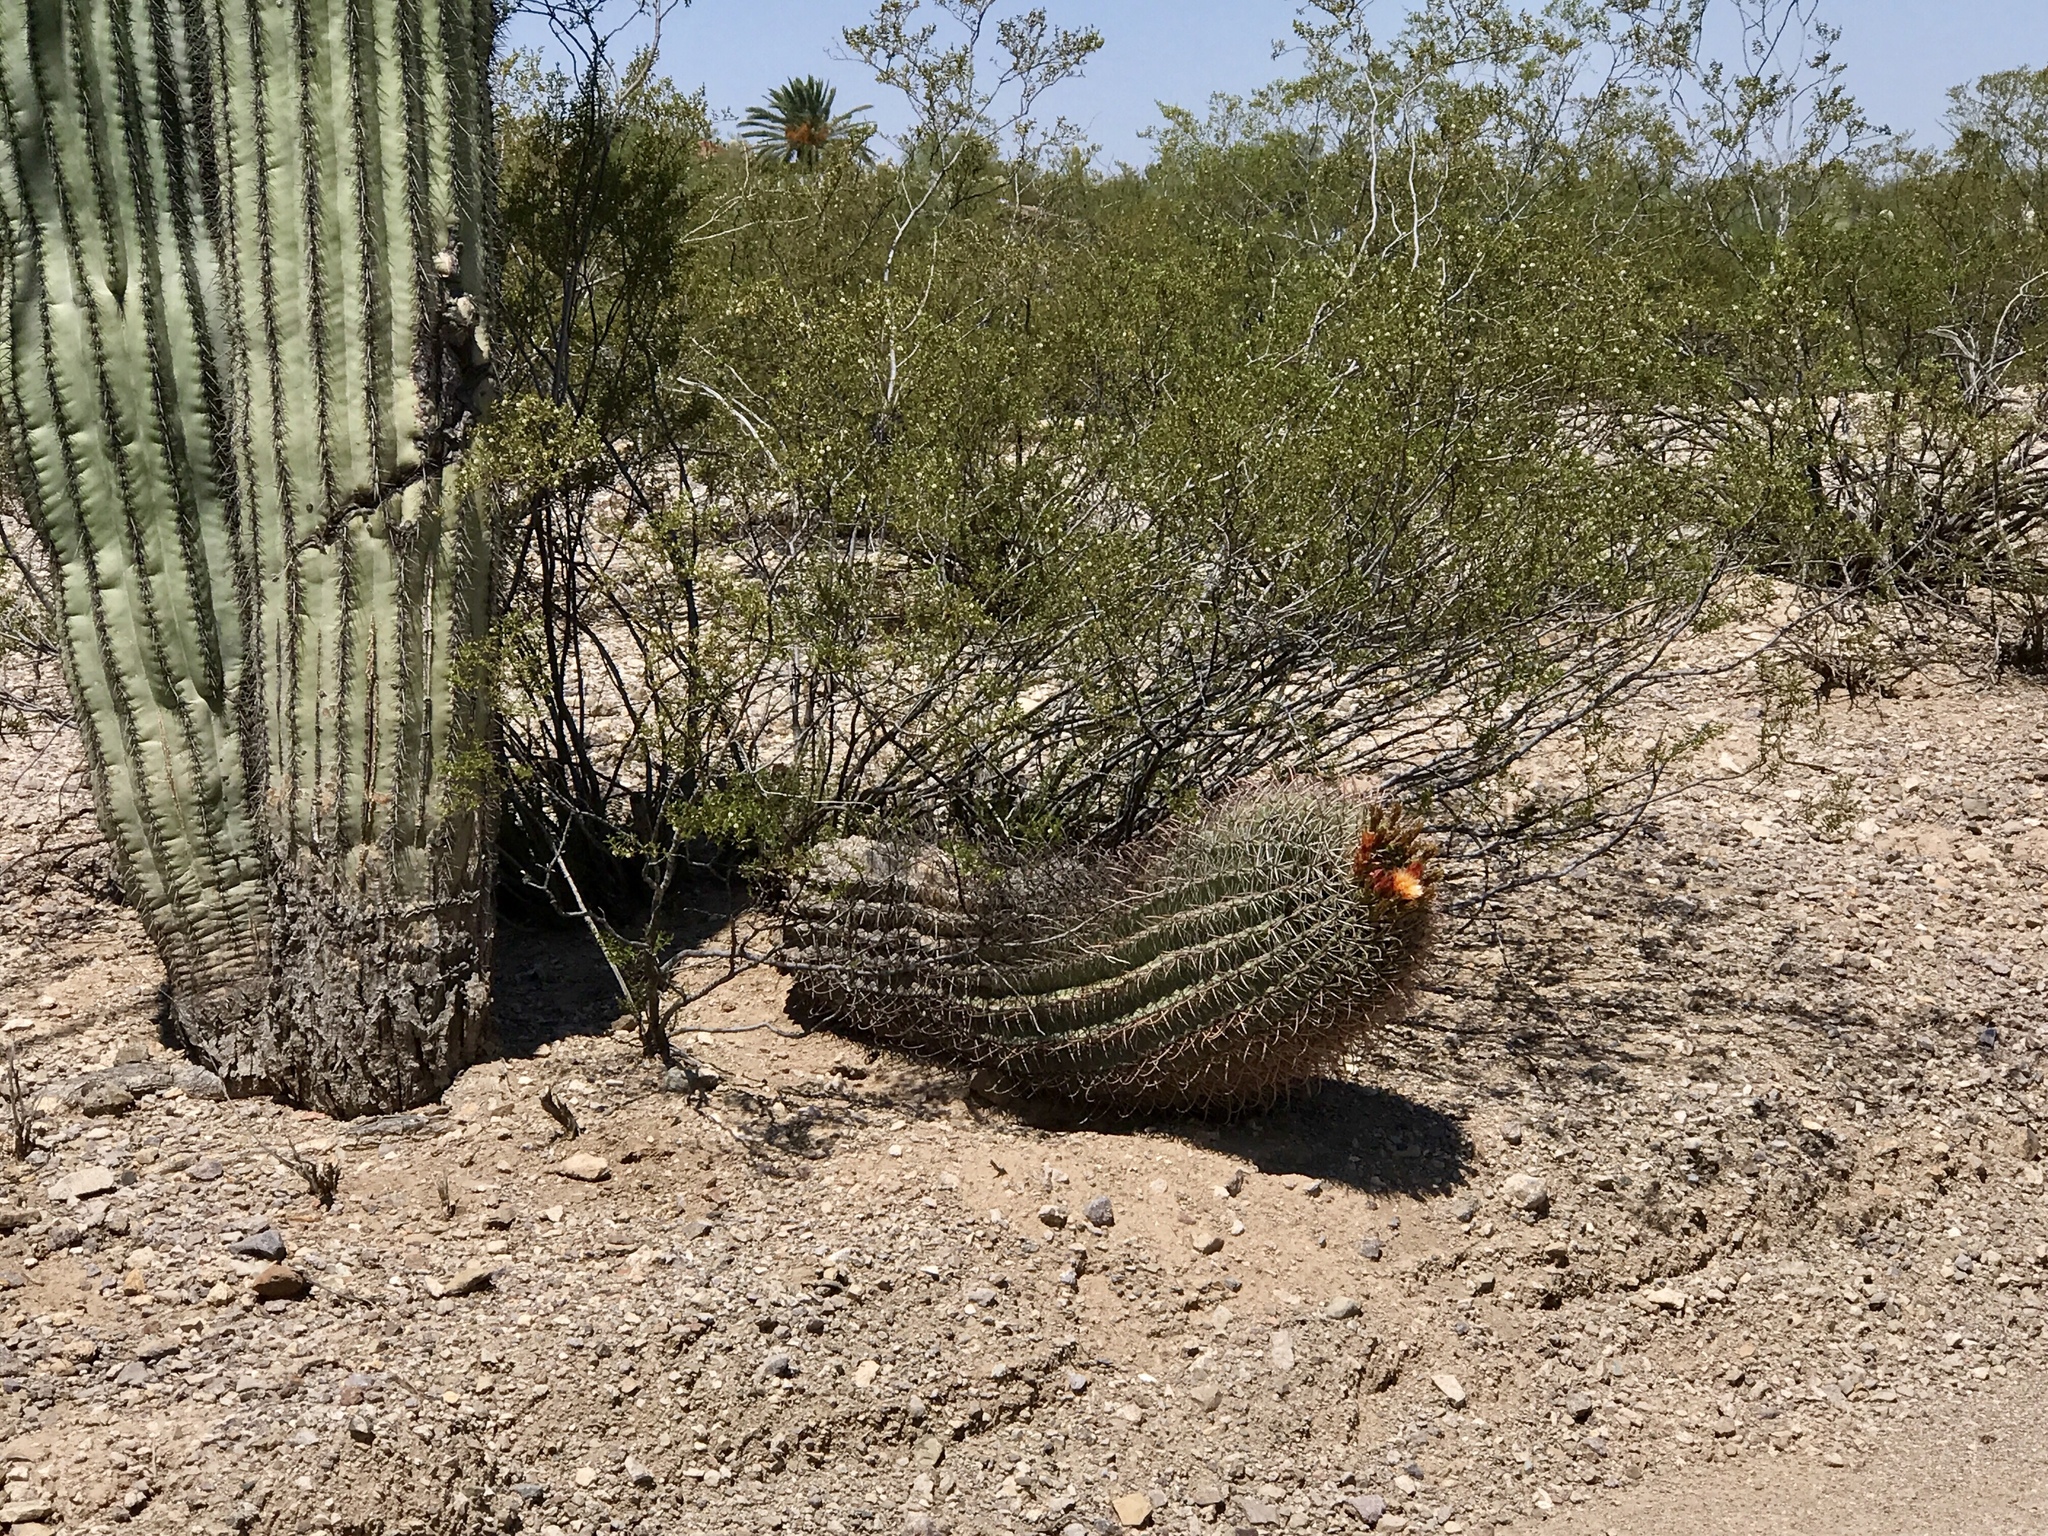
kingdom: Plantae
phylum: Tracheophyta
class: Magnoliopsida
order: Caryophyllales
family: Cactaceae
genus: Ferocactus
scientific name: Ferocactus wislizeni
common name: Candy barrel cactus
